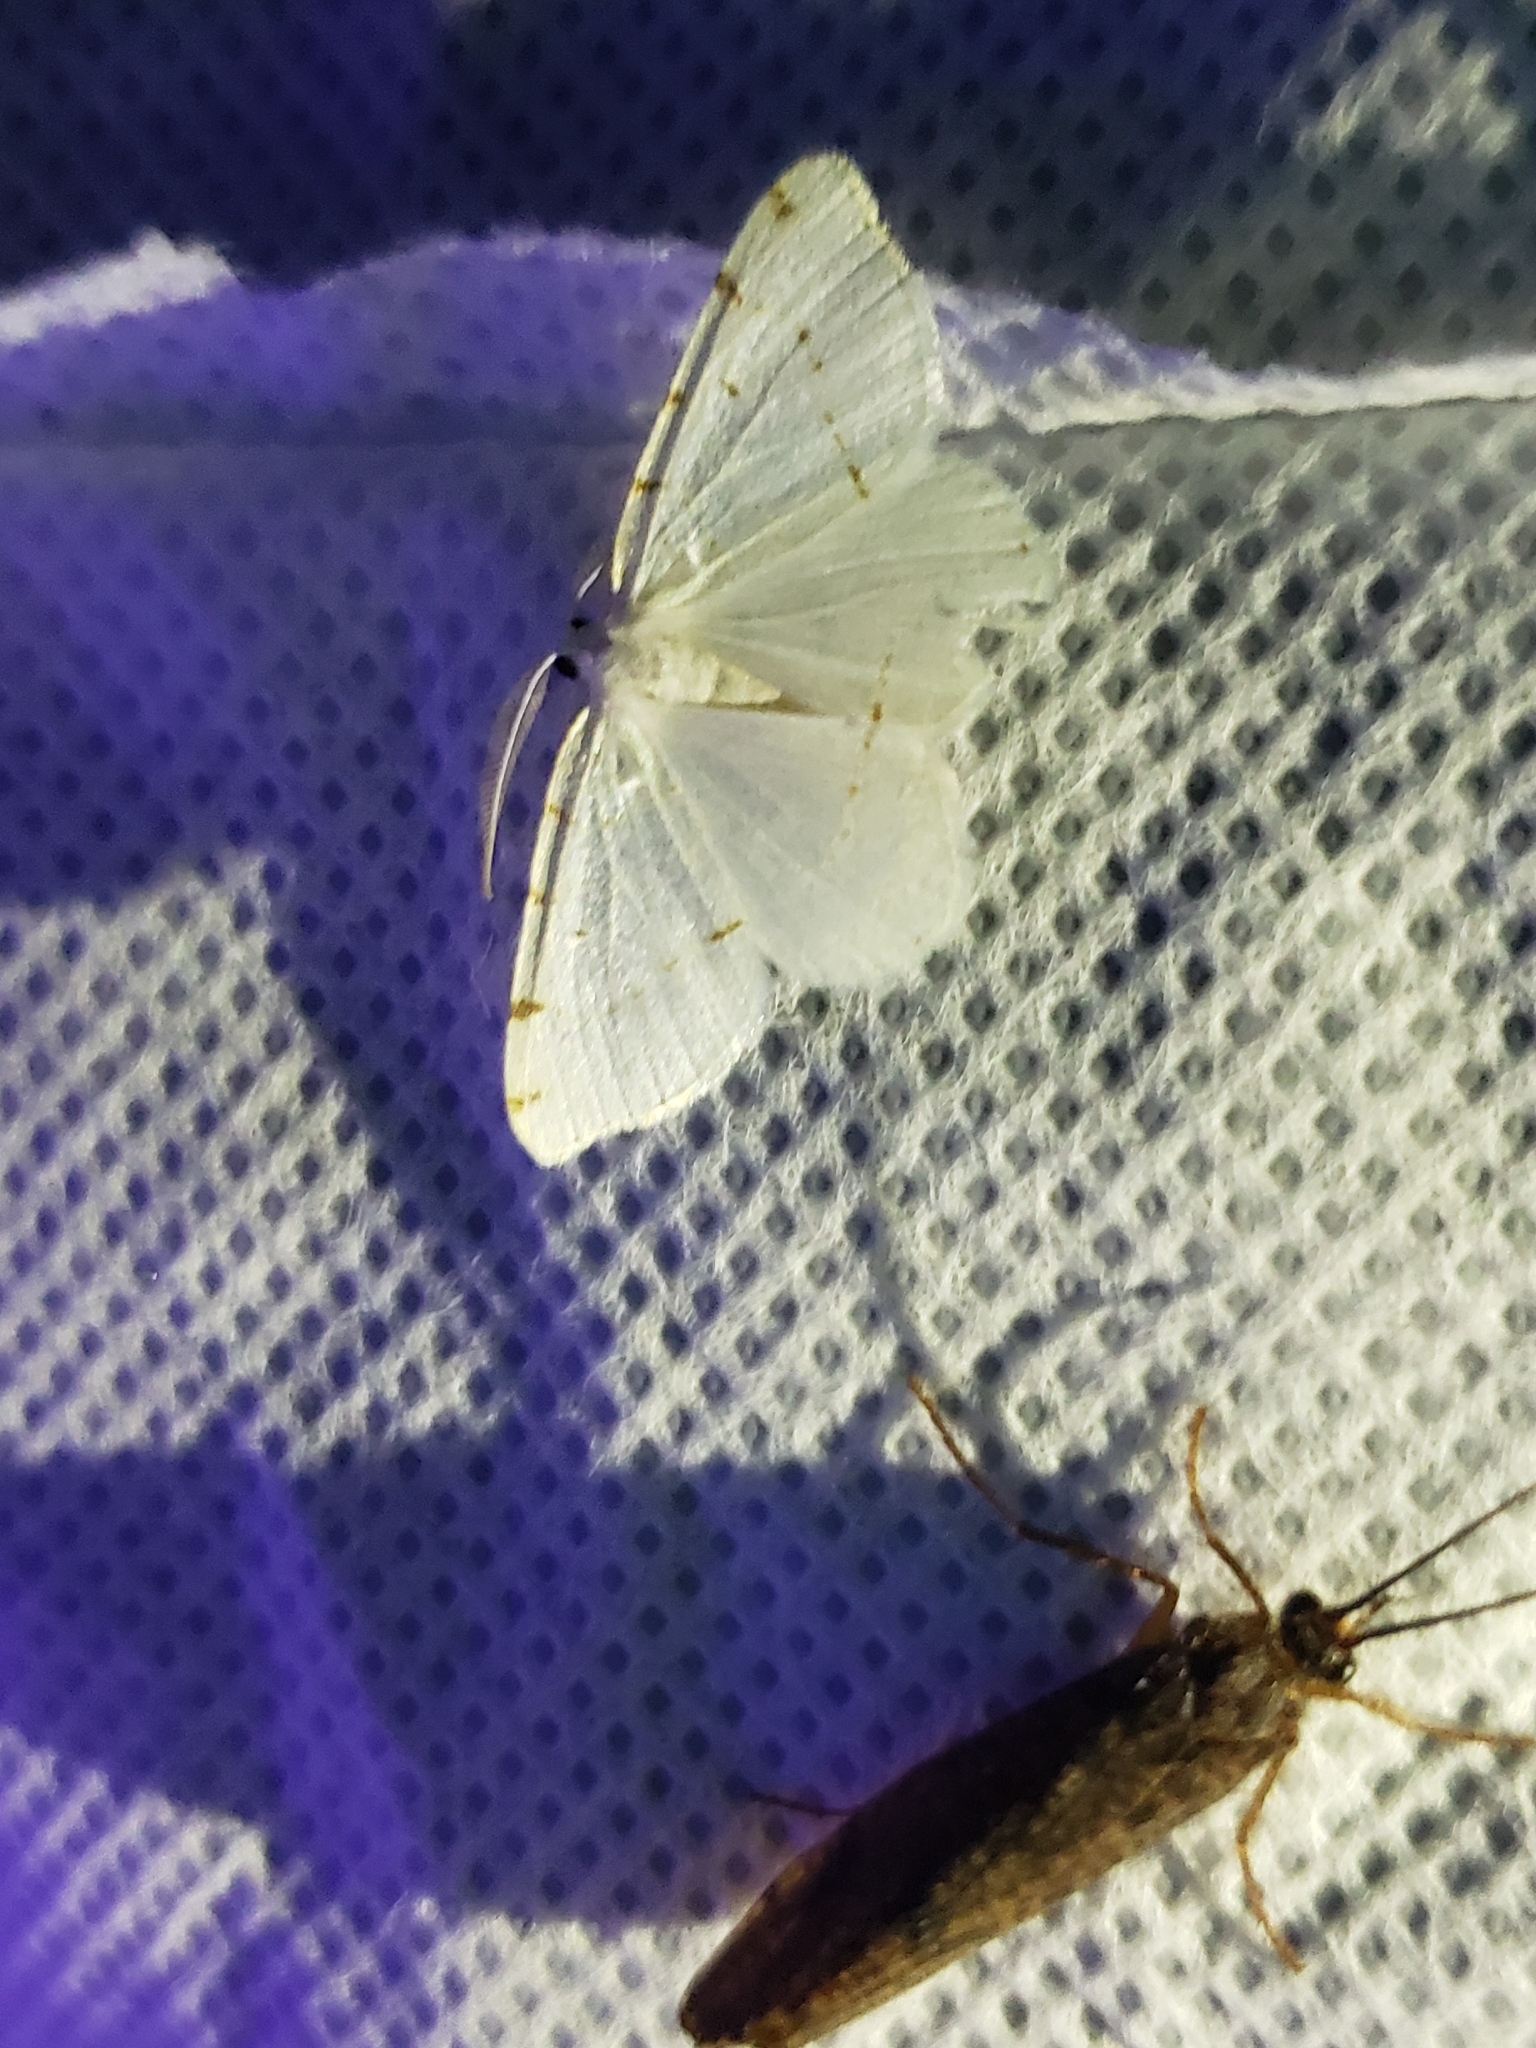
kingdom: Animalia
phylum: Arthropoda
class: Insecta
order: Lepidoptera
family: Geometridae
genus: Macaria
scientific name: Macaria pustularia
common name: Lesser maple spanworm moth
